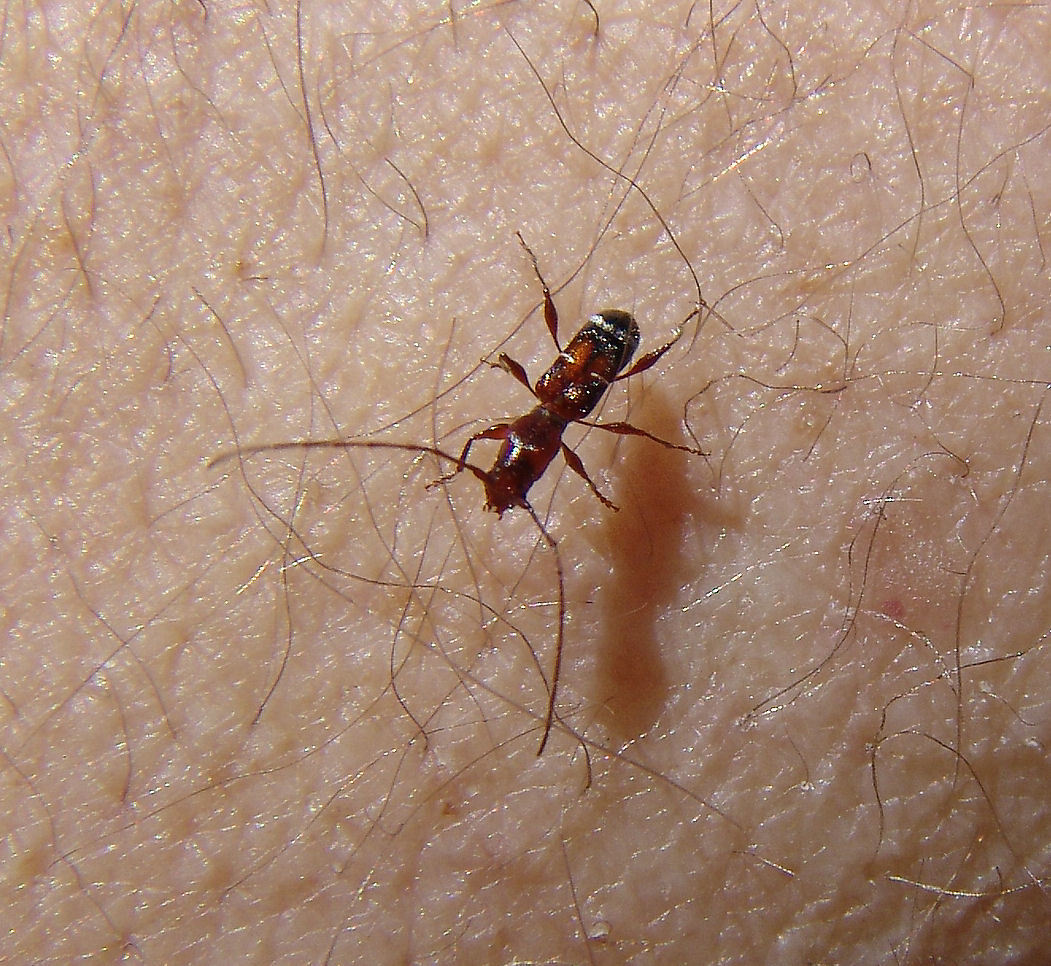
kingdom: Animalia
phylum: Arthropoda
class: Insecta
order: Coleoptera
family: Cerambycidae
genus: Euderces
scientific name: Euderces pini
